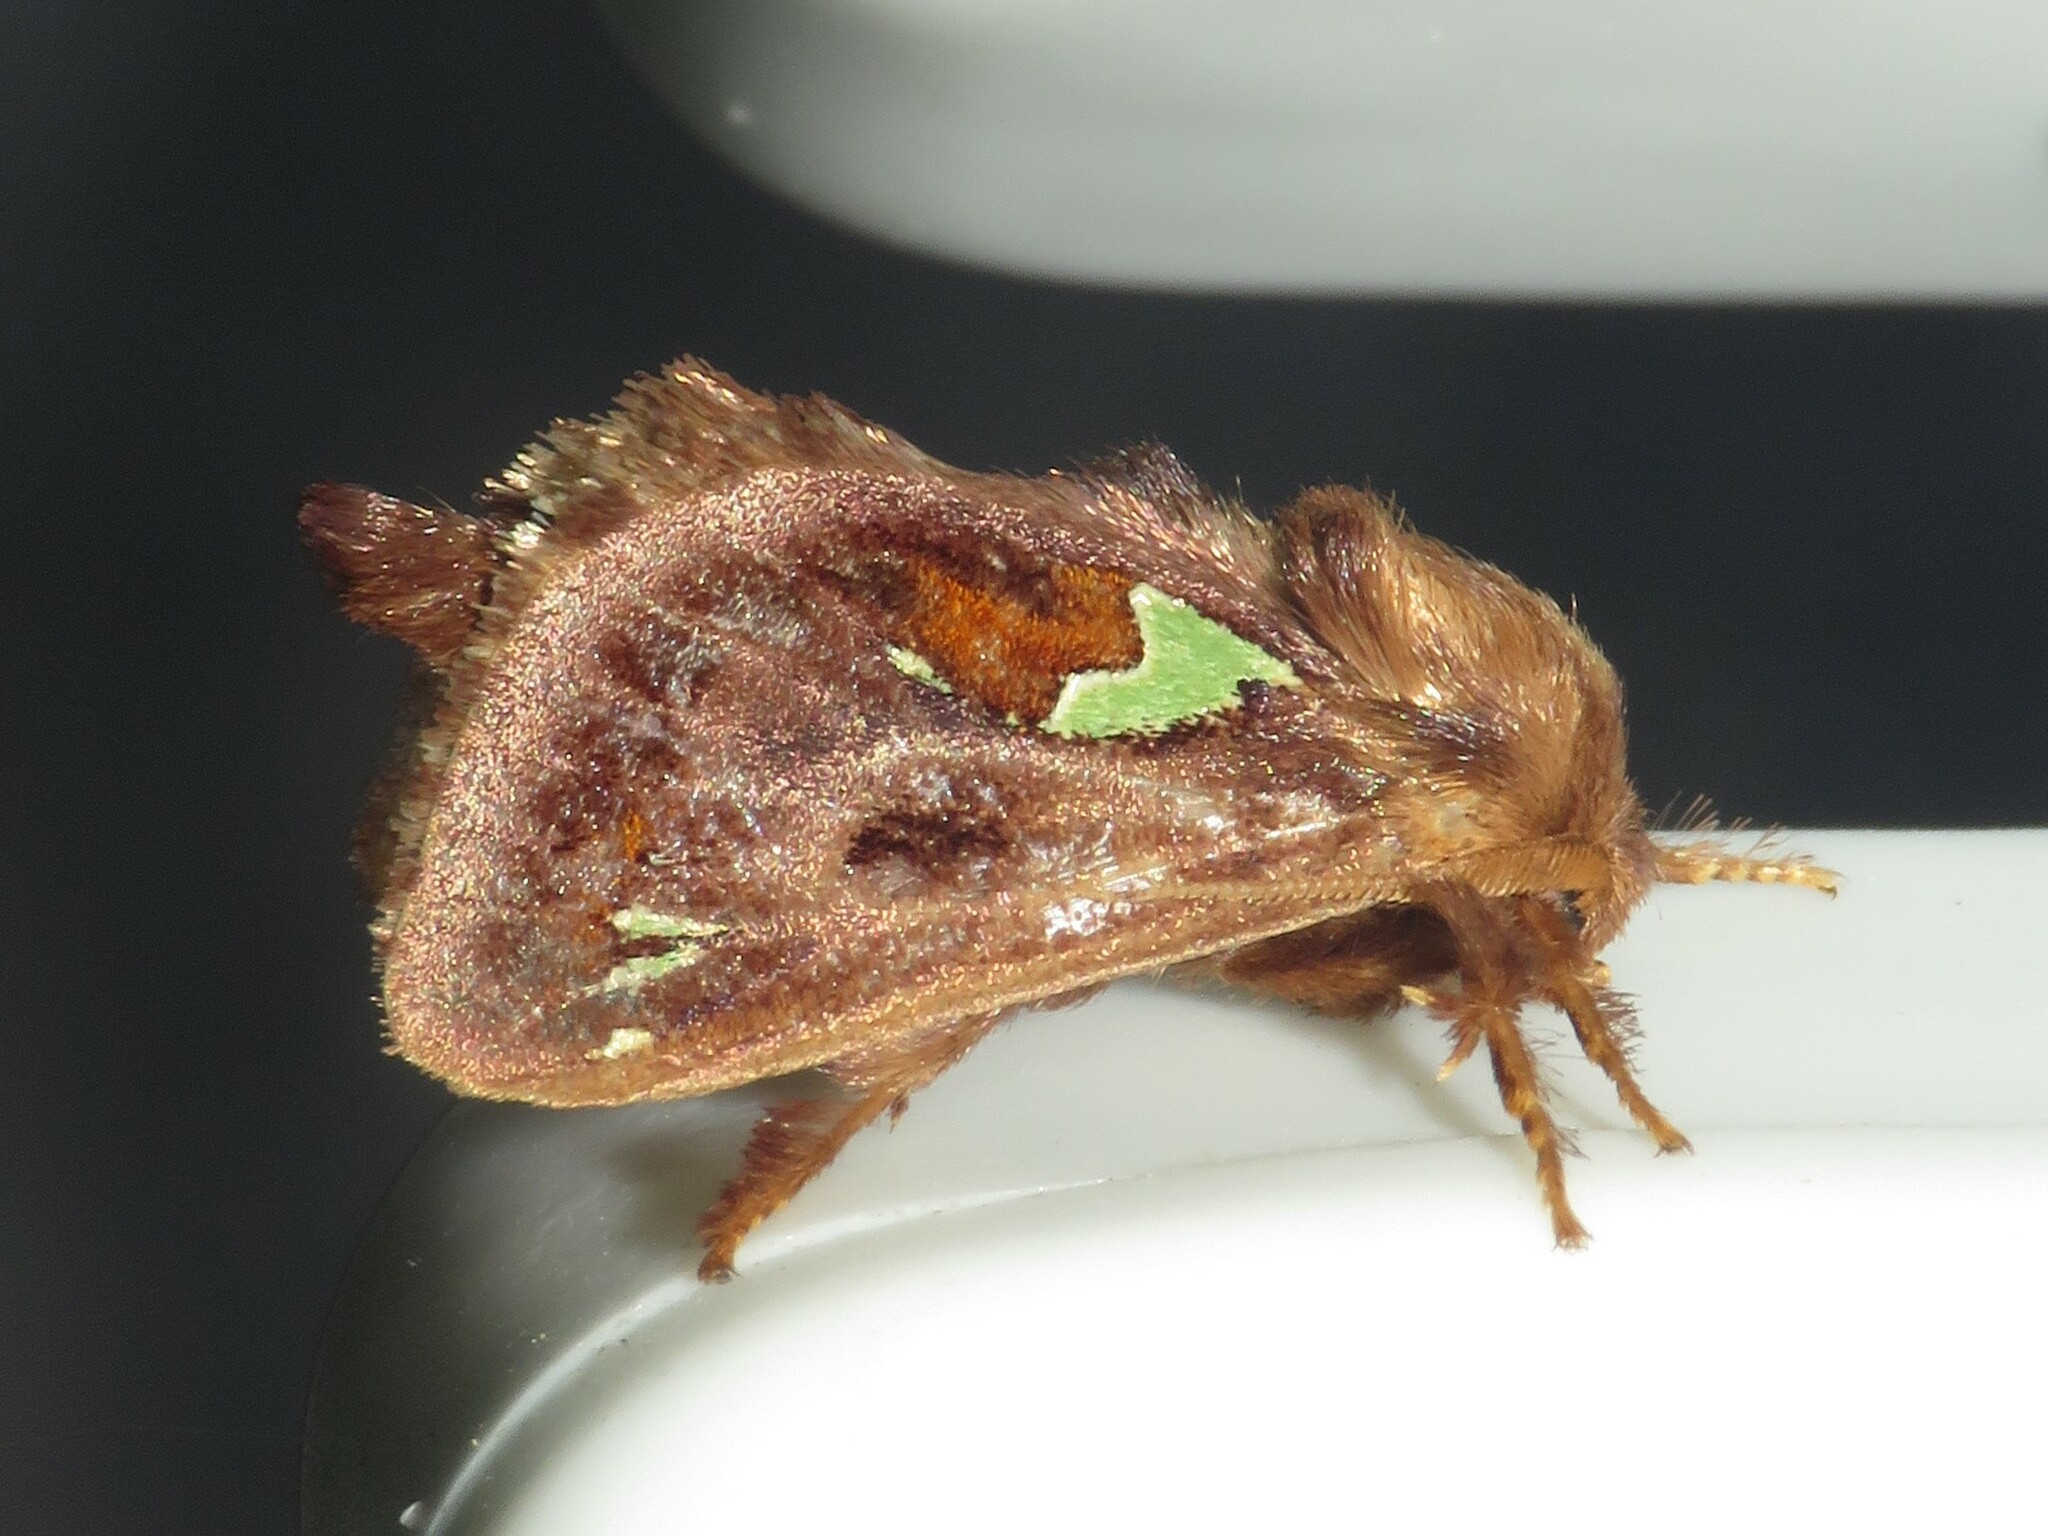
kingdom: Animalia
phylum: Arthropoda
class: Insecta
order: Lepidoptera
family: Limacodidae
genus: Euclea
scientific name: Euclea delphinii
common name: Spiny oak-slug moth
